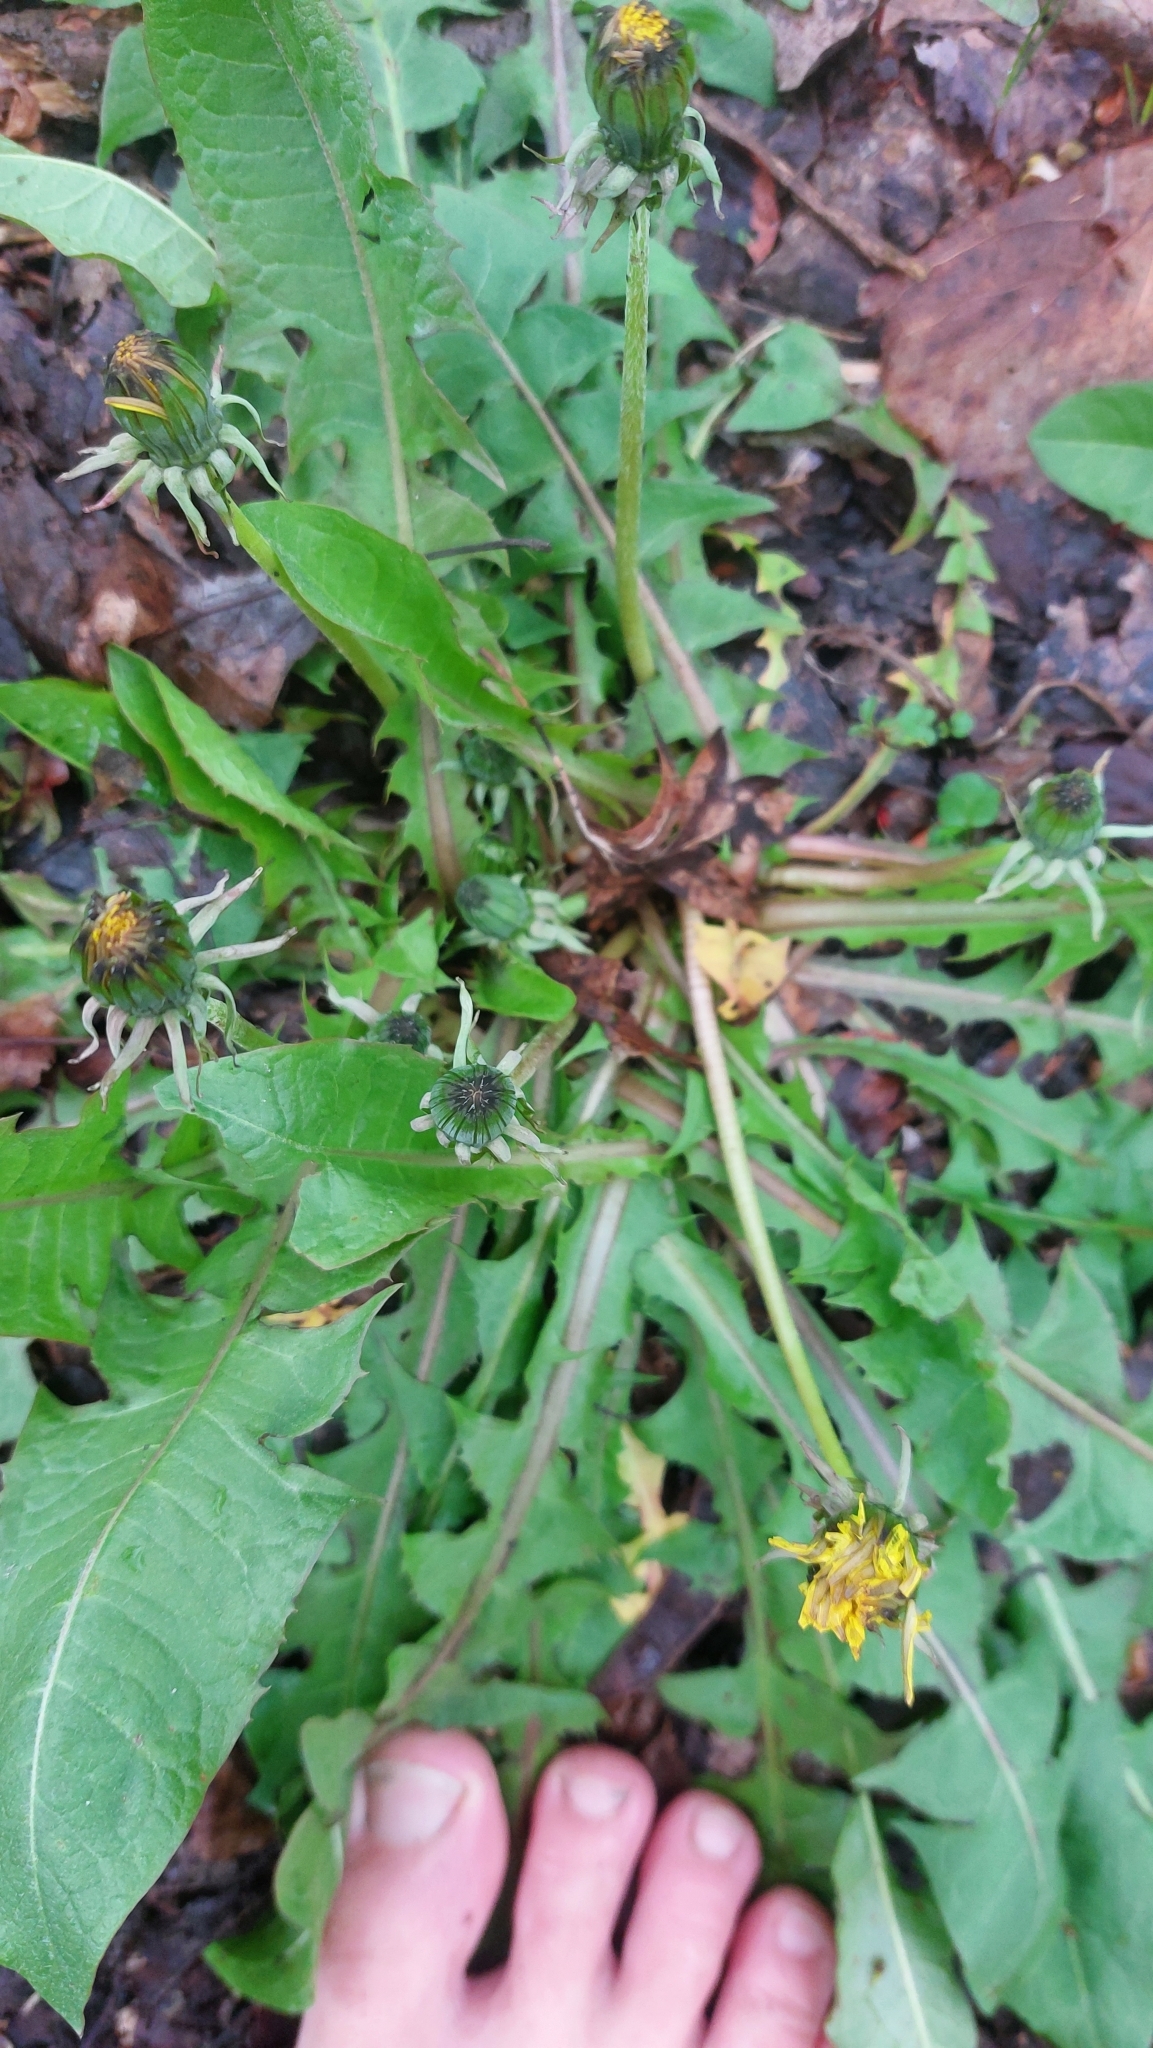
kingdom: Plantae
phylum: Tracheophyta
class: Magnoliopsida
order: Asterales
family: Asteraceae
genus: Taraxacum
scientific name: Taraxacum
